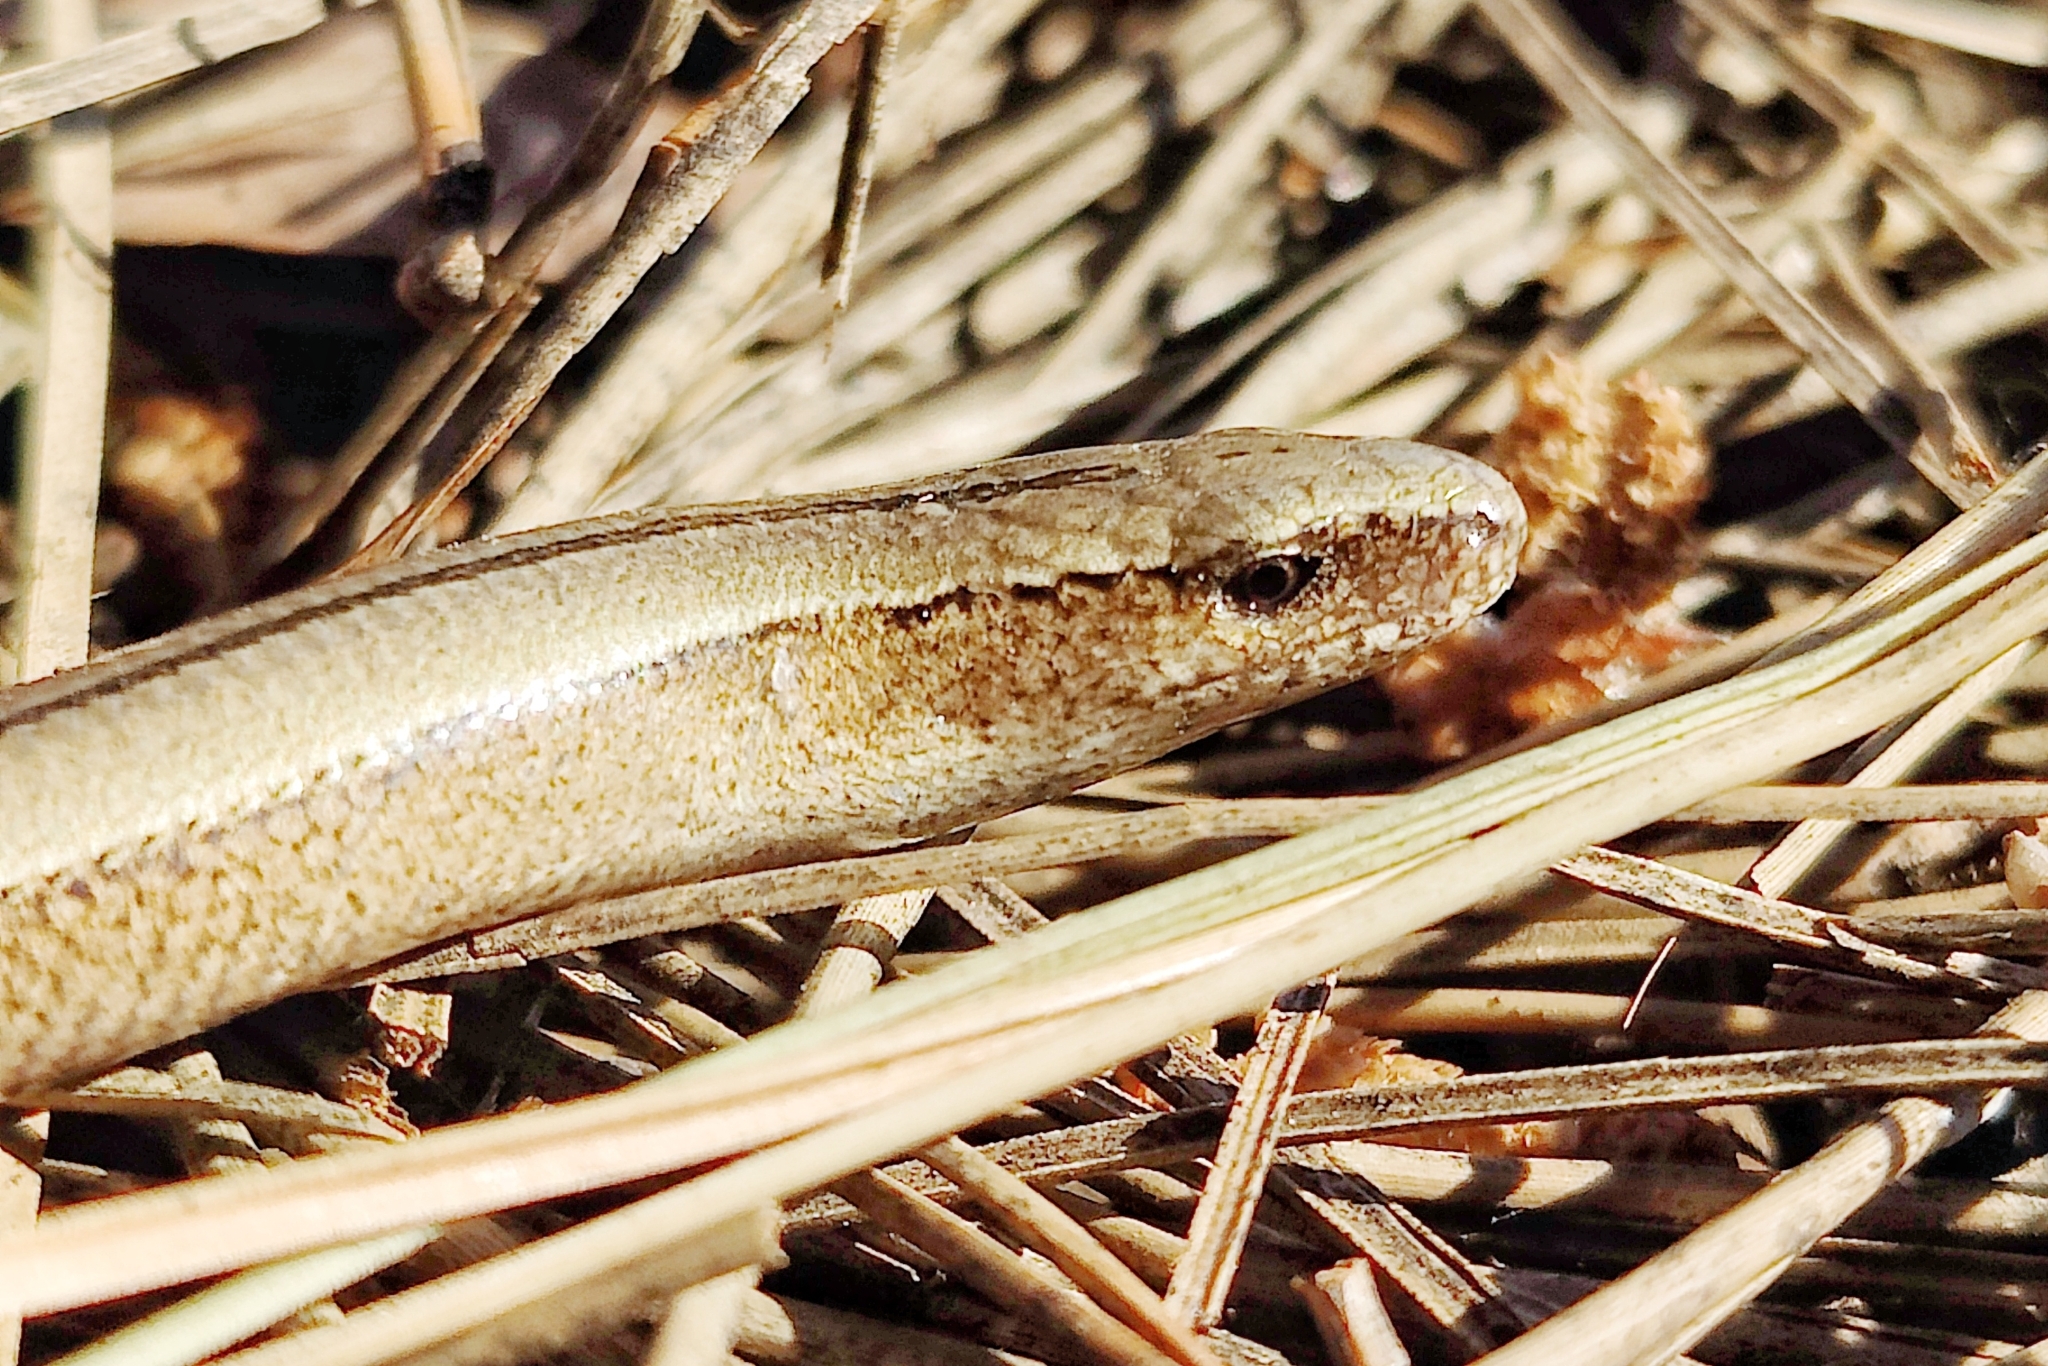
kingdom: Animalia
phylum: Chordata
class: Squamata
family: Anguidae
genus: Anguis
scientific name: Anguis colchica
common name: Slow worm
